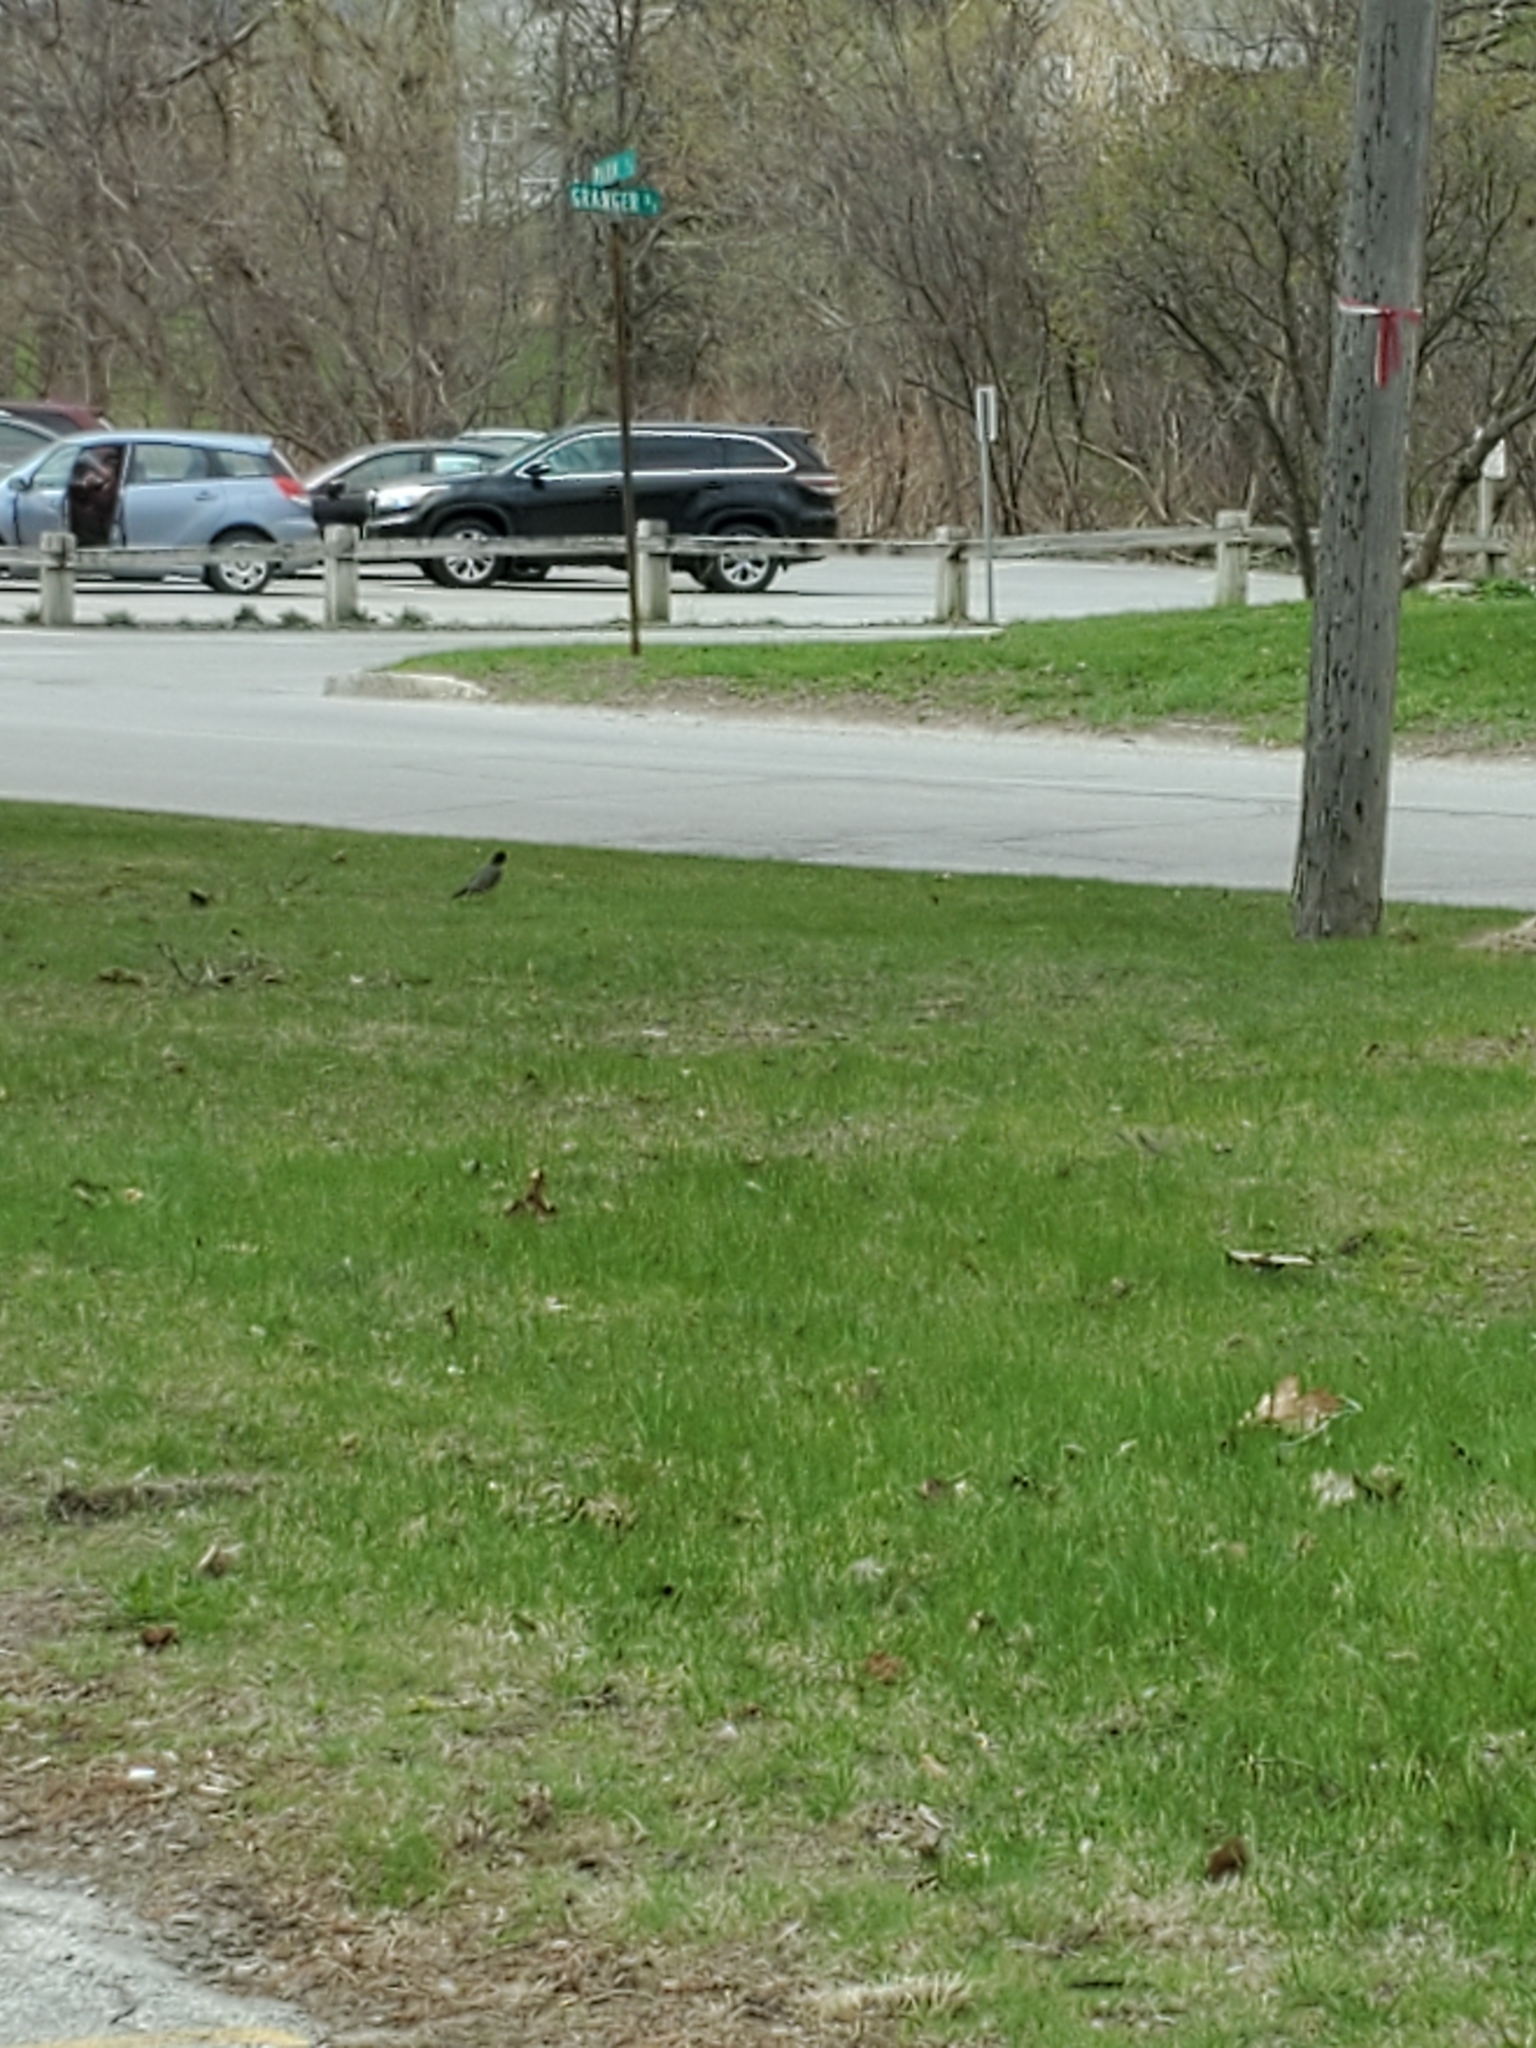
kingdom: Animalia
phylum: Chordata
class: Aves
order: Passeriformes
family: Turdidae
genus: Turdus
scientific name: Turdus migratorius
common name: American robin
